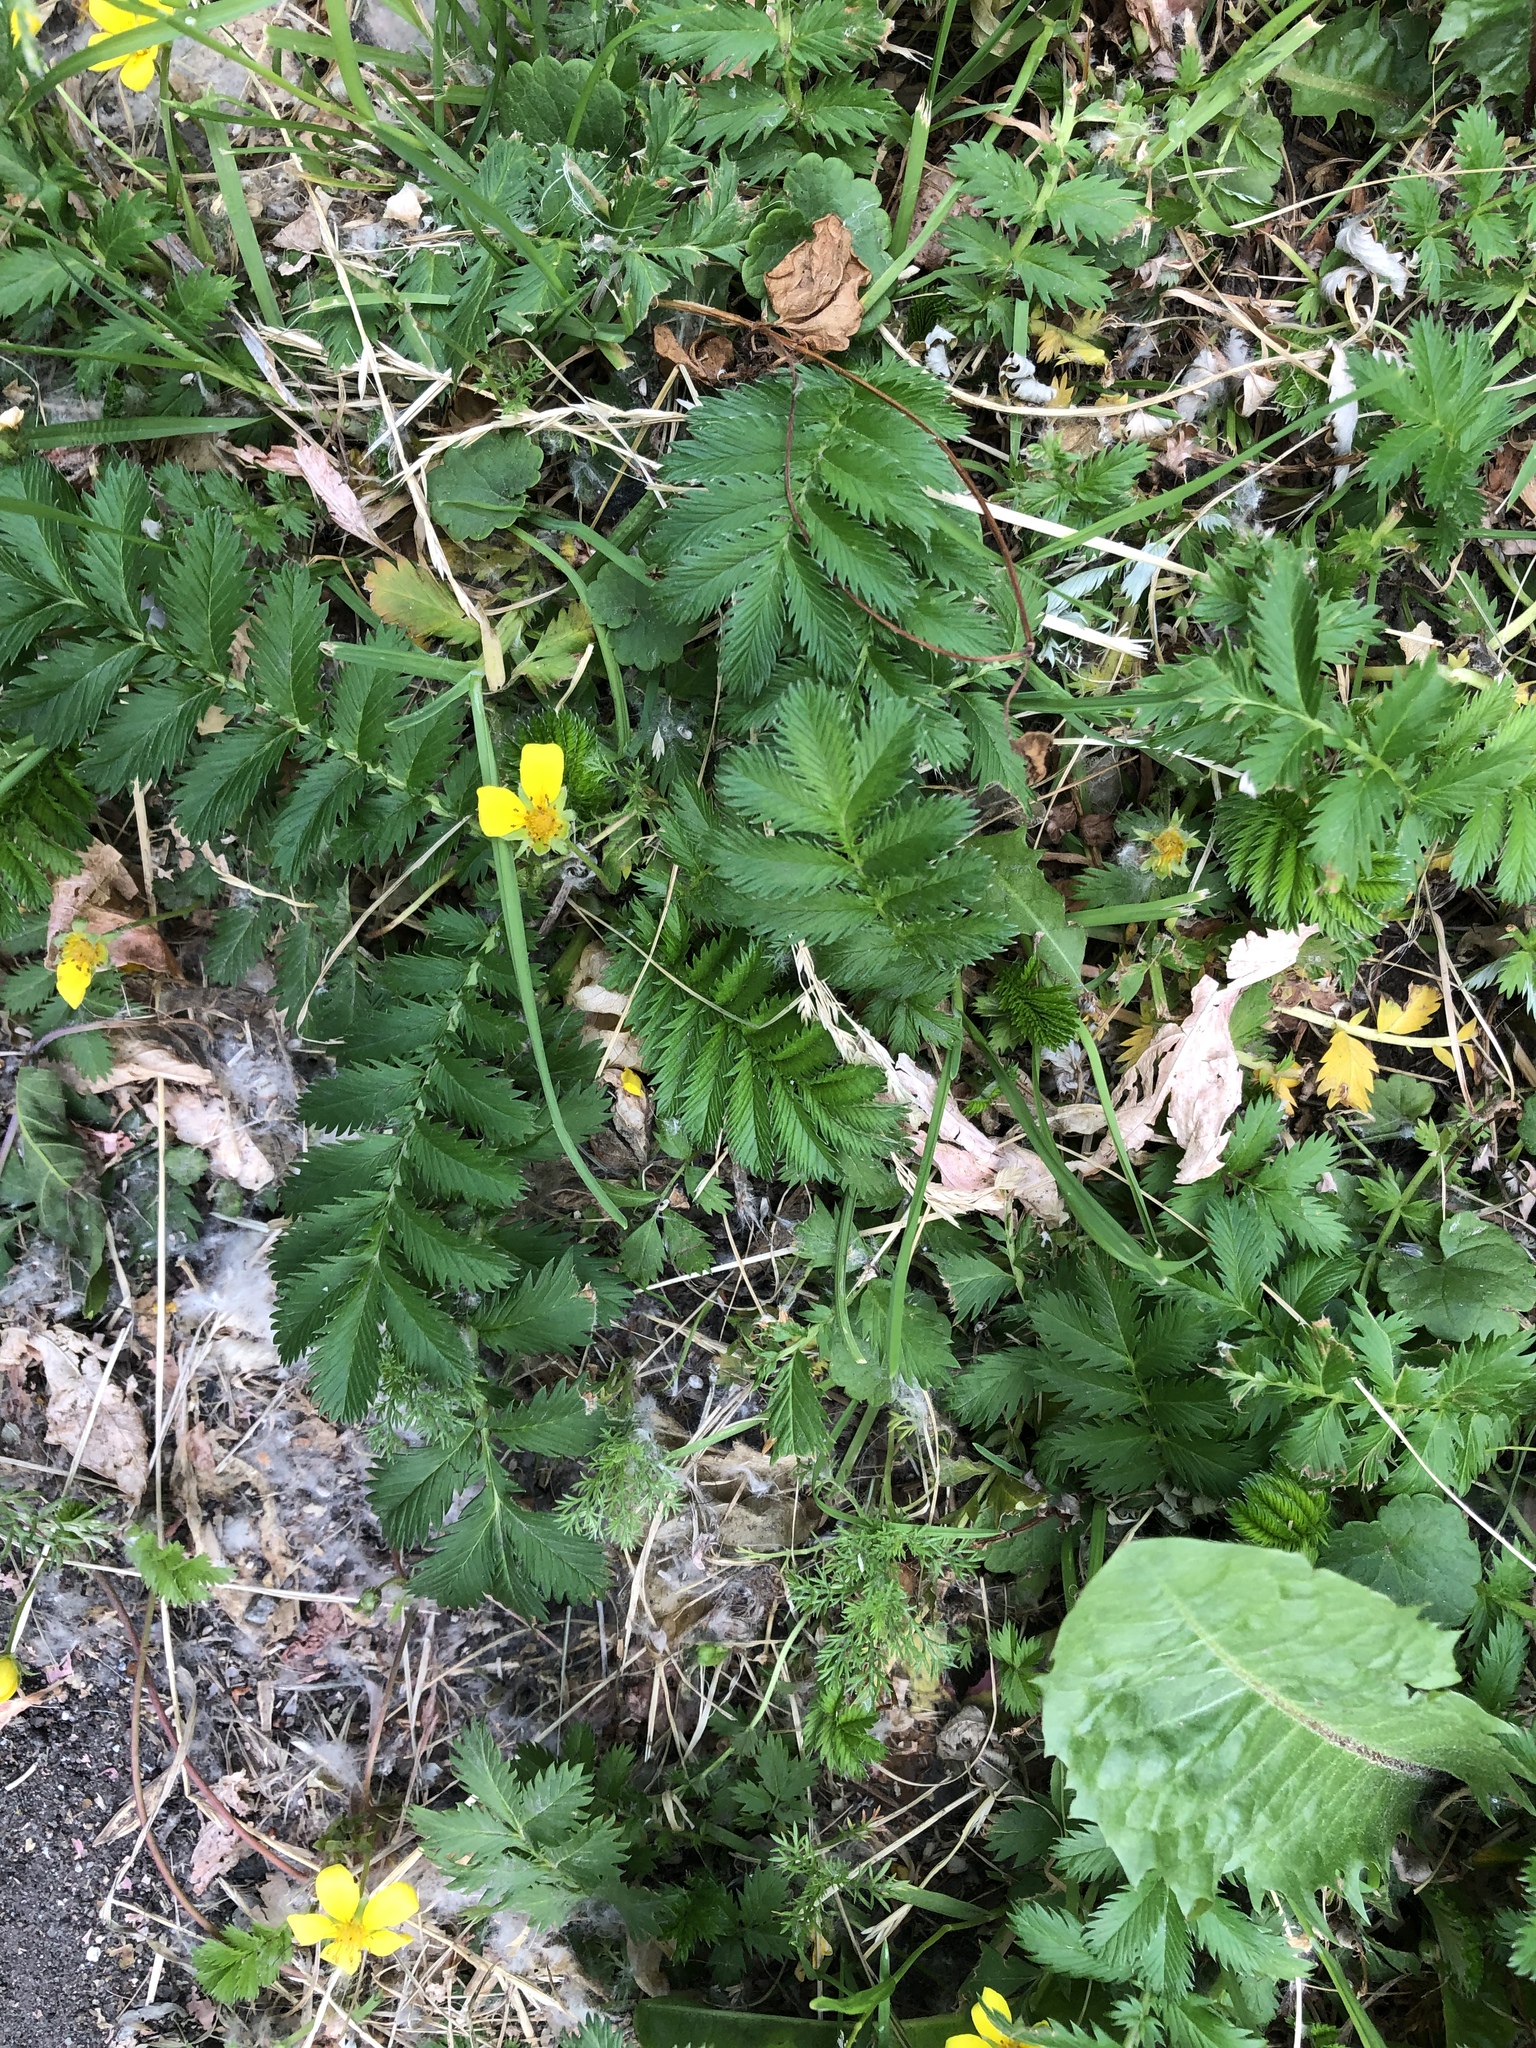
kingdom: Plantae
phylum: Tracheophyta
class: Magnoliopsida
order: Rosales
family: Rosaceae
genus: Argentina
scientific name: Argentina anserina
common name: Common silverweed
